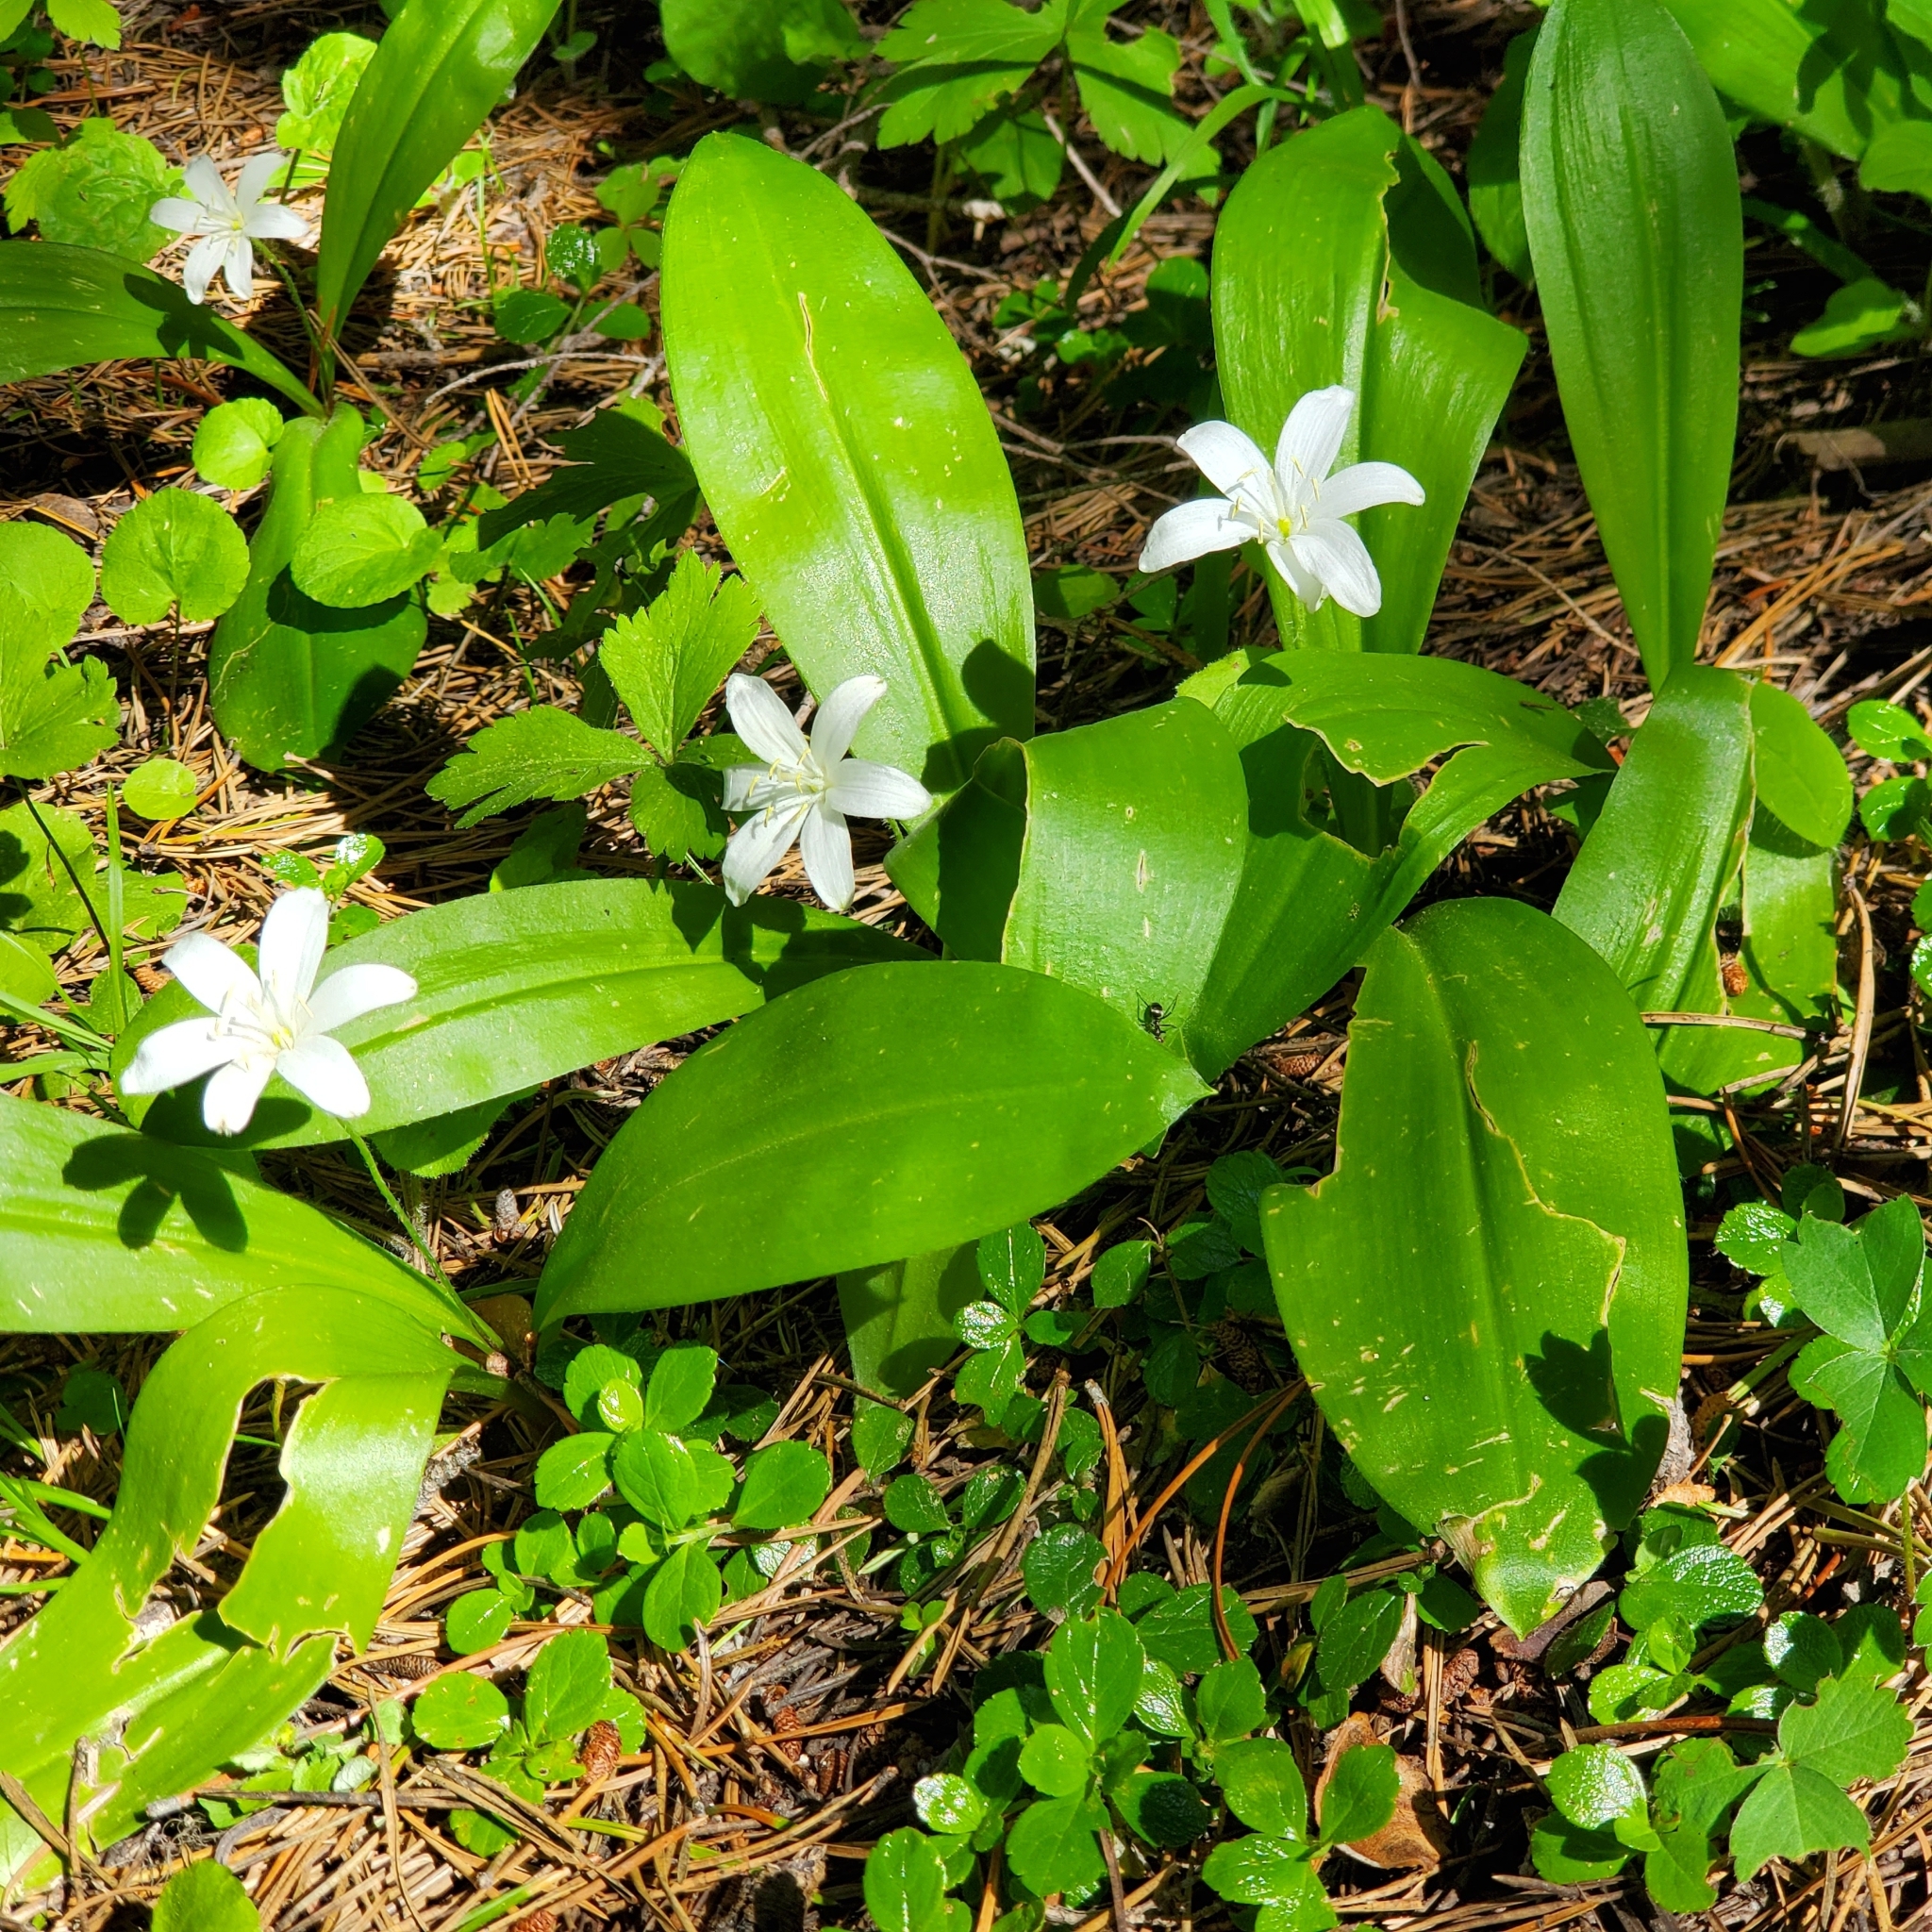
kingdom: Plantae
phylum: Tracheophyta
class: Liliopsida
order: Liliales
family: Liliaceae
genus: Clintonia
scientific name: Clintonia uniflora
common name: Queen's cup
